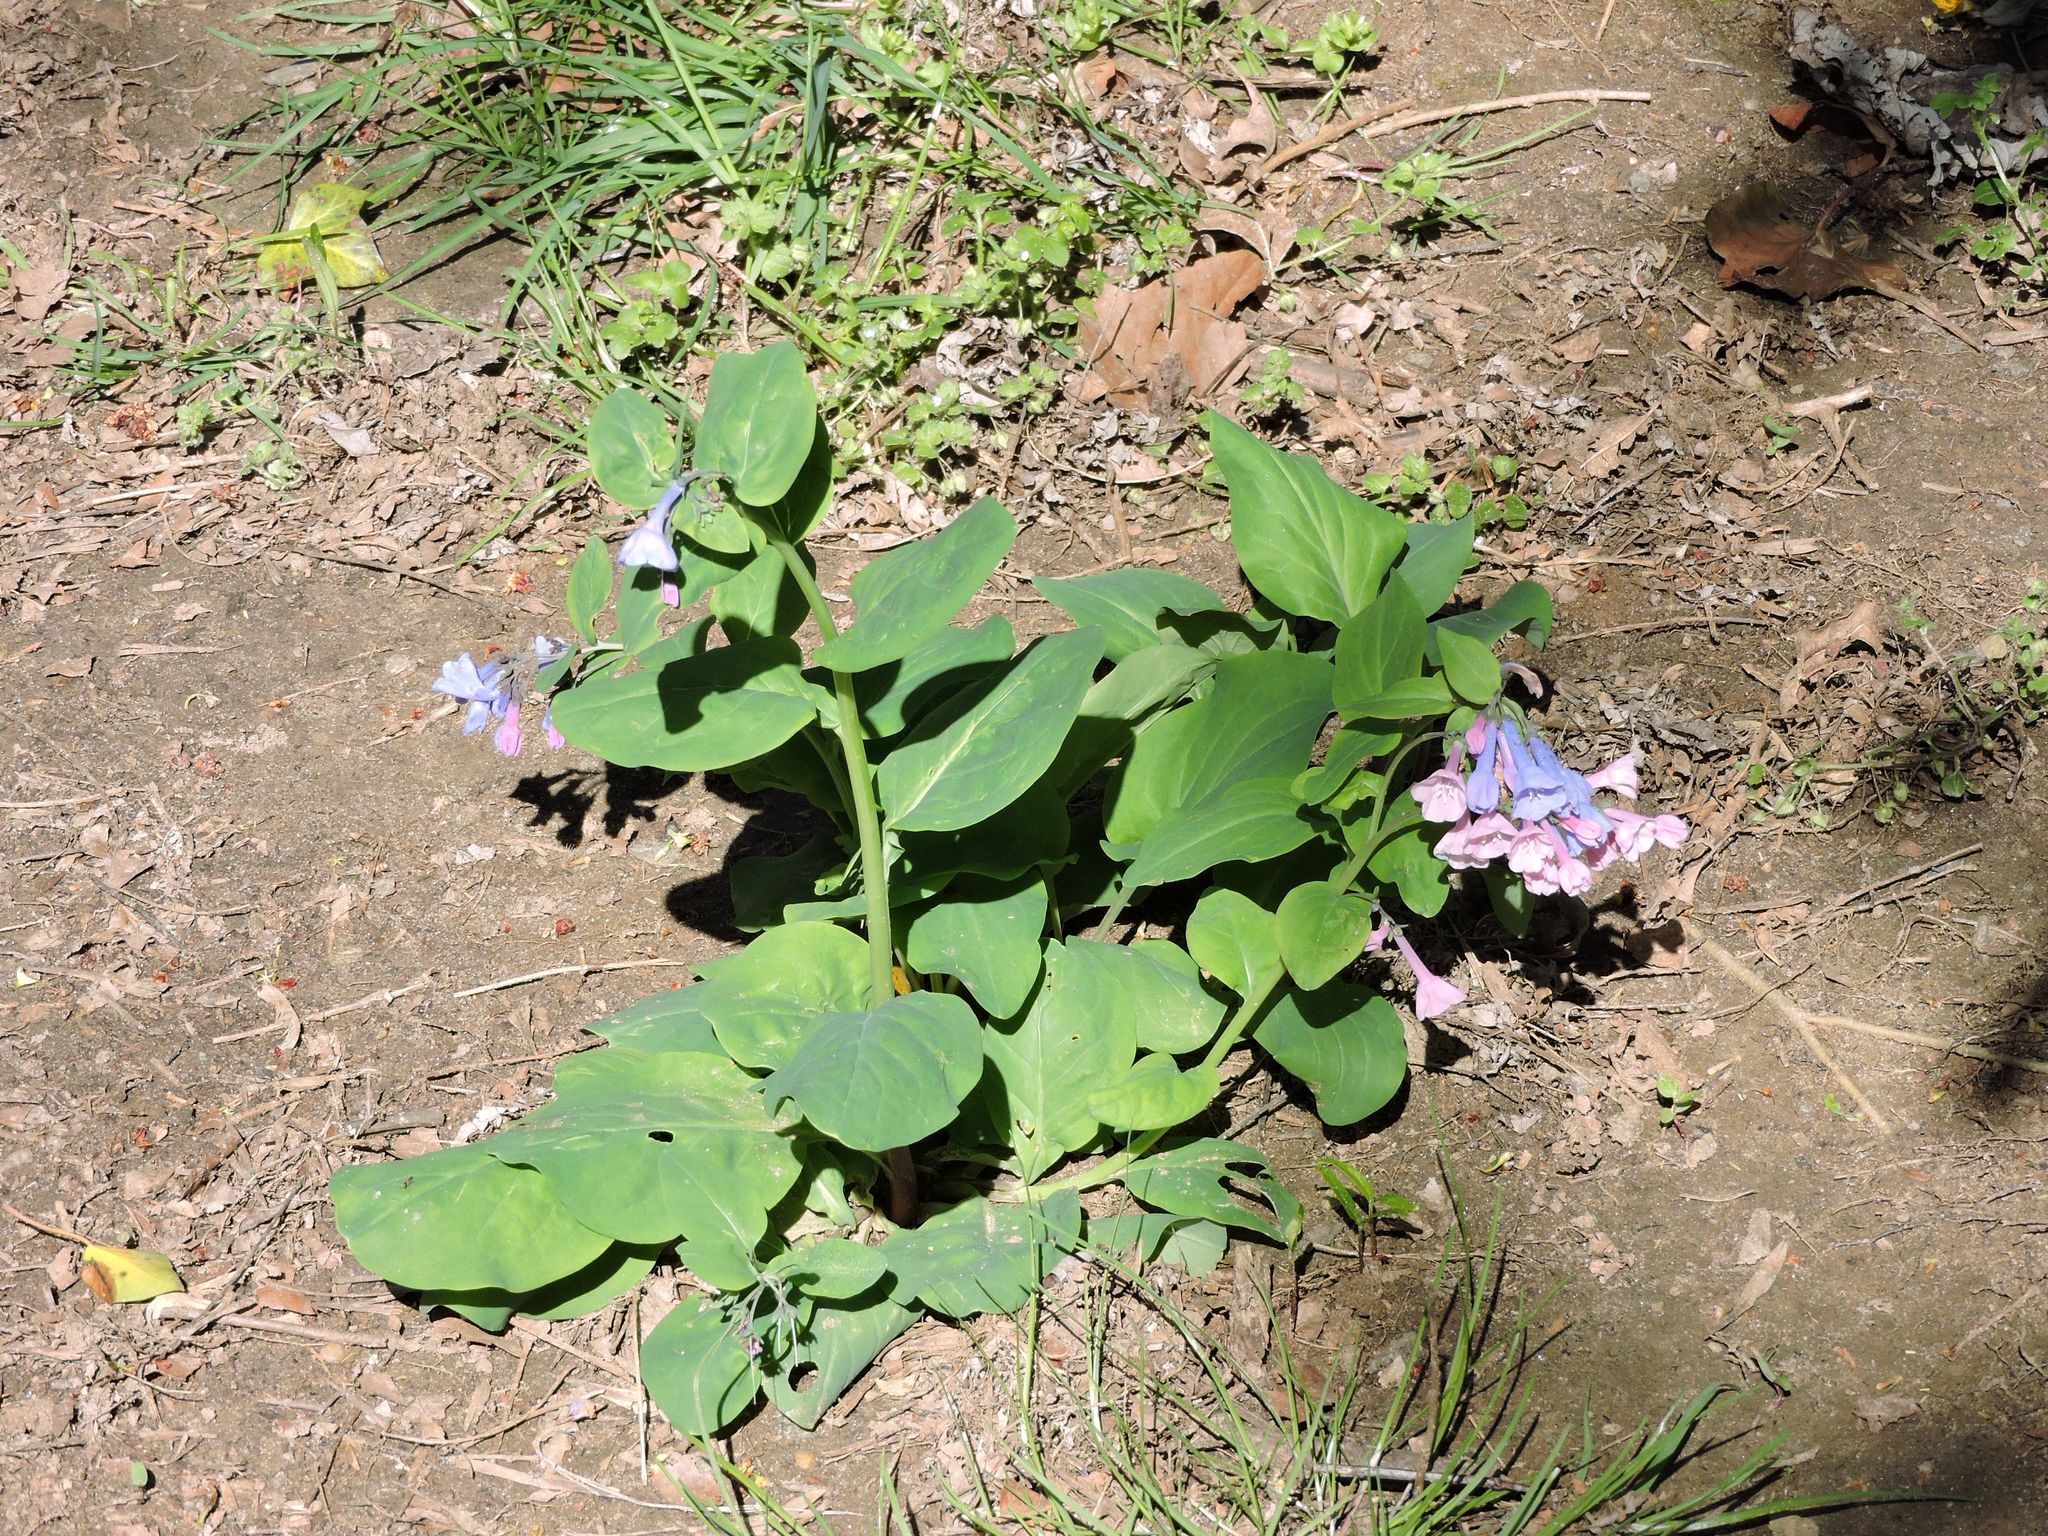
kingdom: Plantae
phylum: Tracheophyta
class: Magnoliopsida
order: Boraginales
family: Boraginaceae
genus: Mertensia
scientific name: Mertensia virginica
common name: Virginia bluebells
